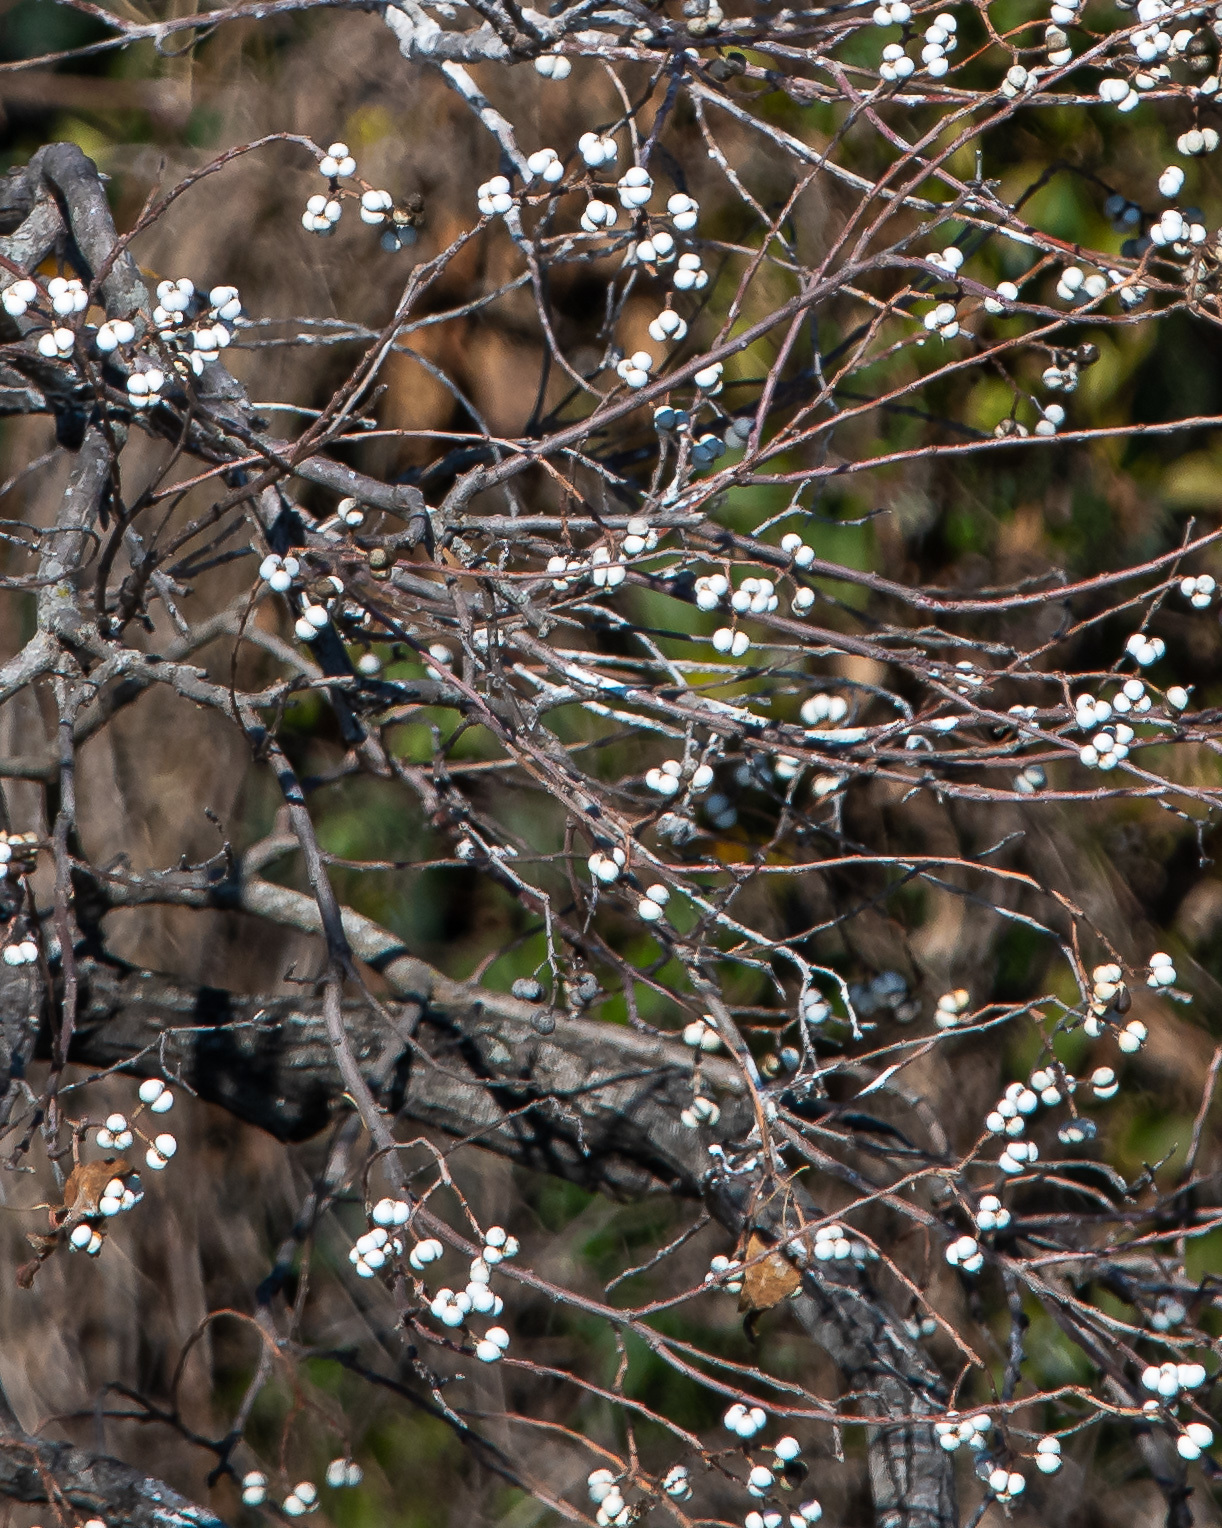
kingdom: Plantae
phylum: Tracheophyta
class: Magnoliopsida
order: Malpighiales
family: Euphorbiaceae
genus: Triadica
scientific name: Triadica sebifera
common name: Chinese tallow
